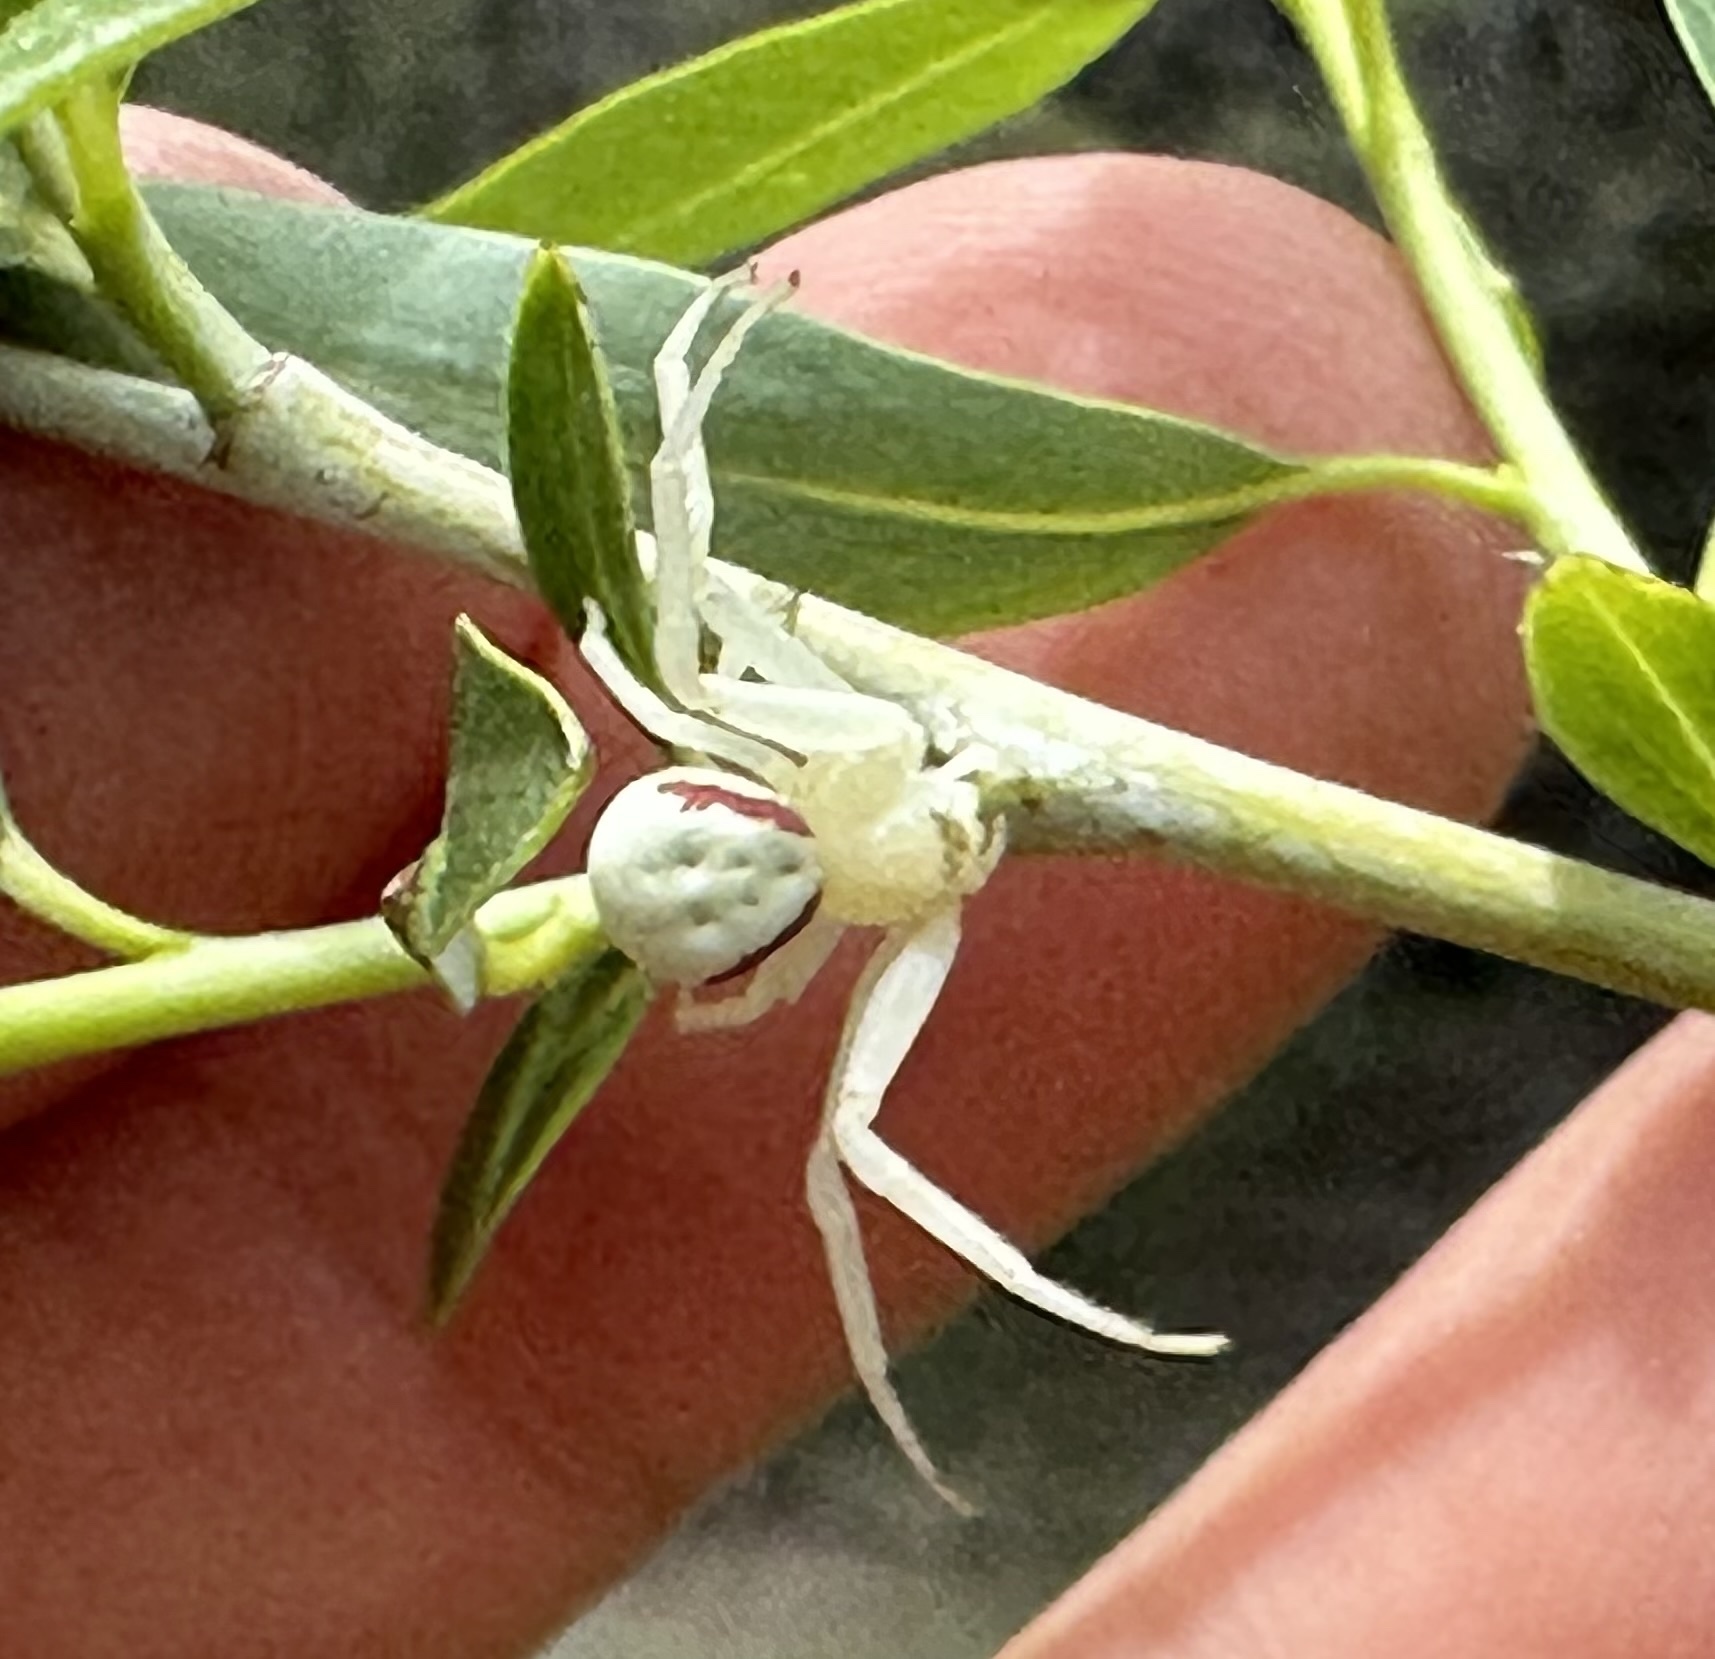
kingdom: Animalia
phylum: Arthropoda
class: Arachnida
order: Araneae
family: Thomisidae
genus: Misumena
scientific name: Misumena vatia
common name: Goldenrod crab spider
